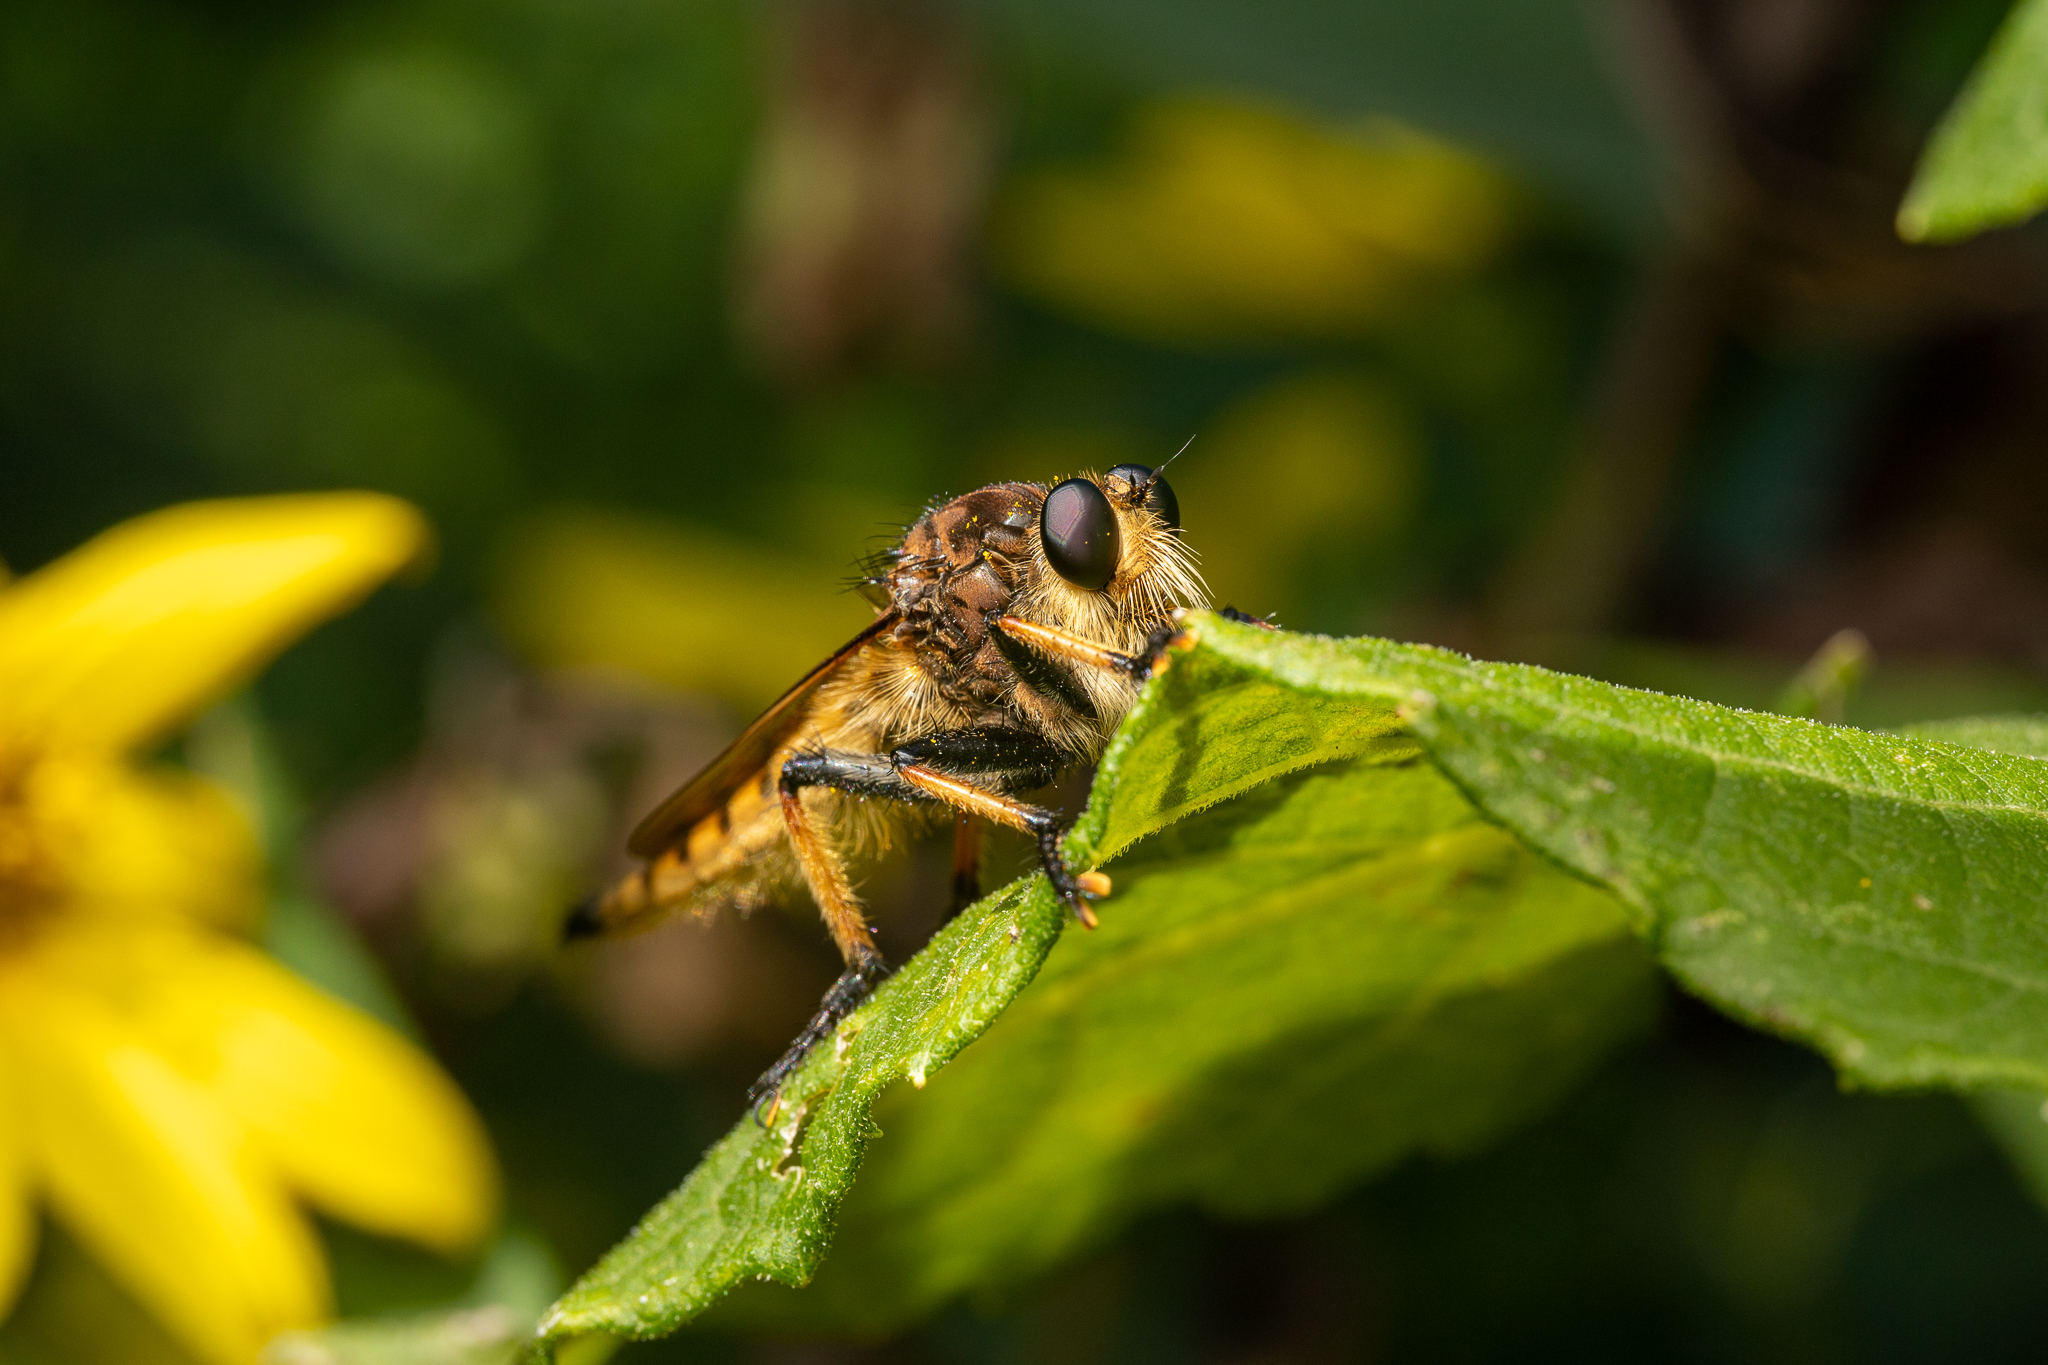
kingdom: Animalia
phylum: Arthropoda
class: Insecta
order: Diptera
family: Asilidae
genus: Promachus
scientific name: Promachus rufipes
